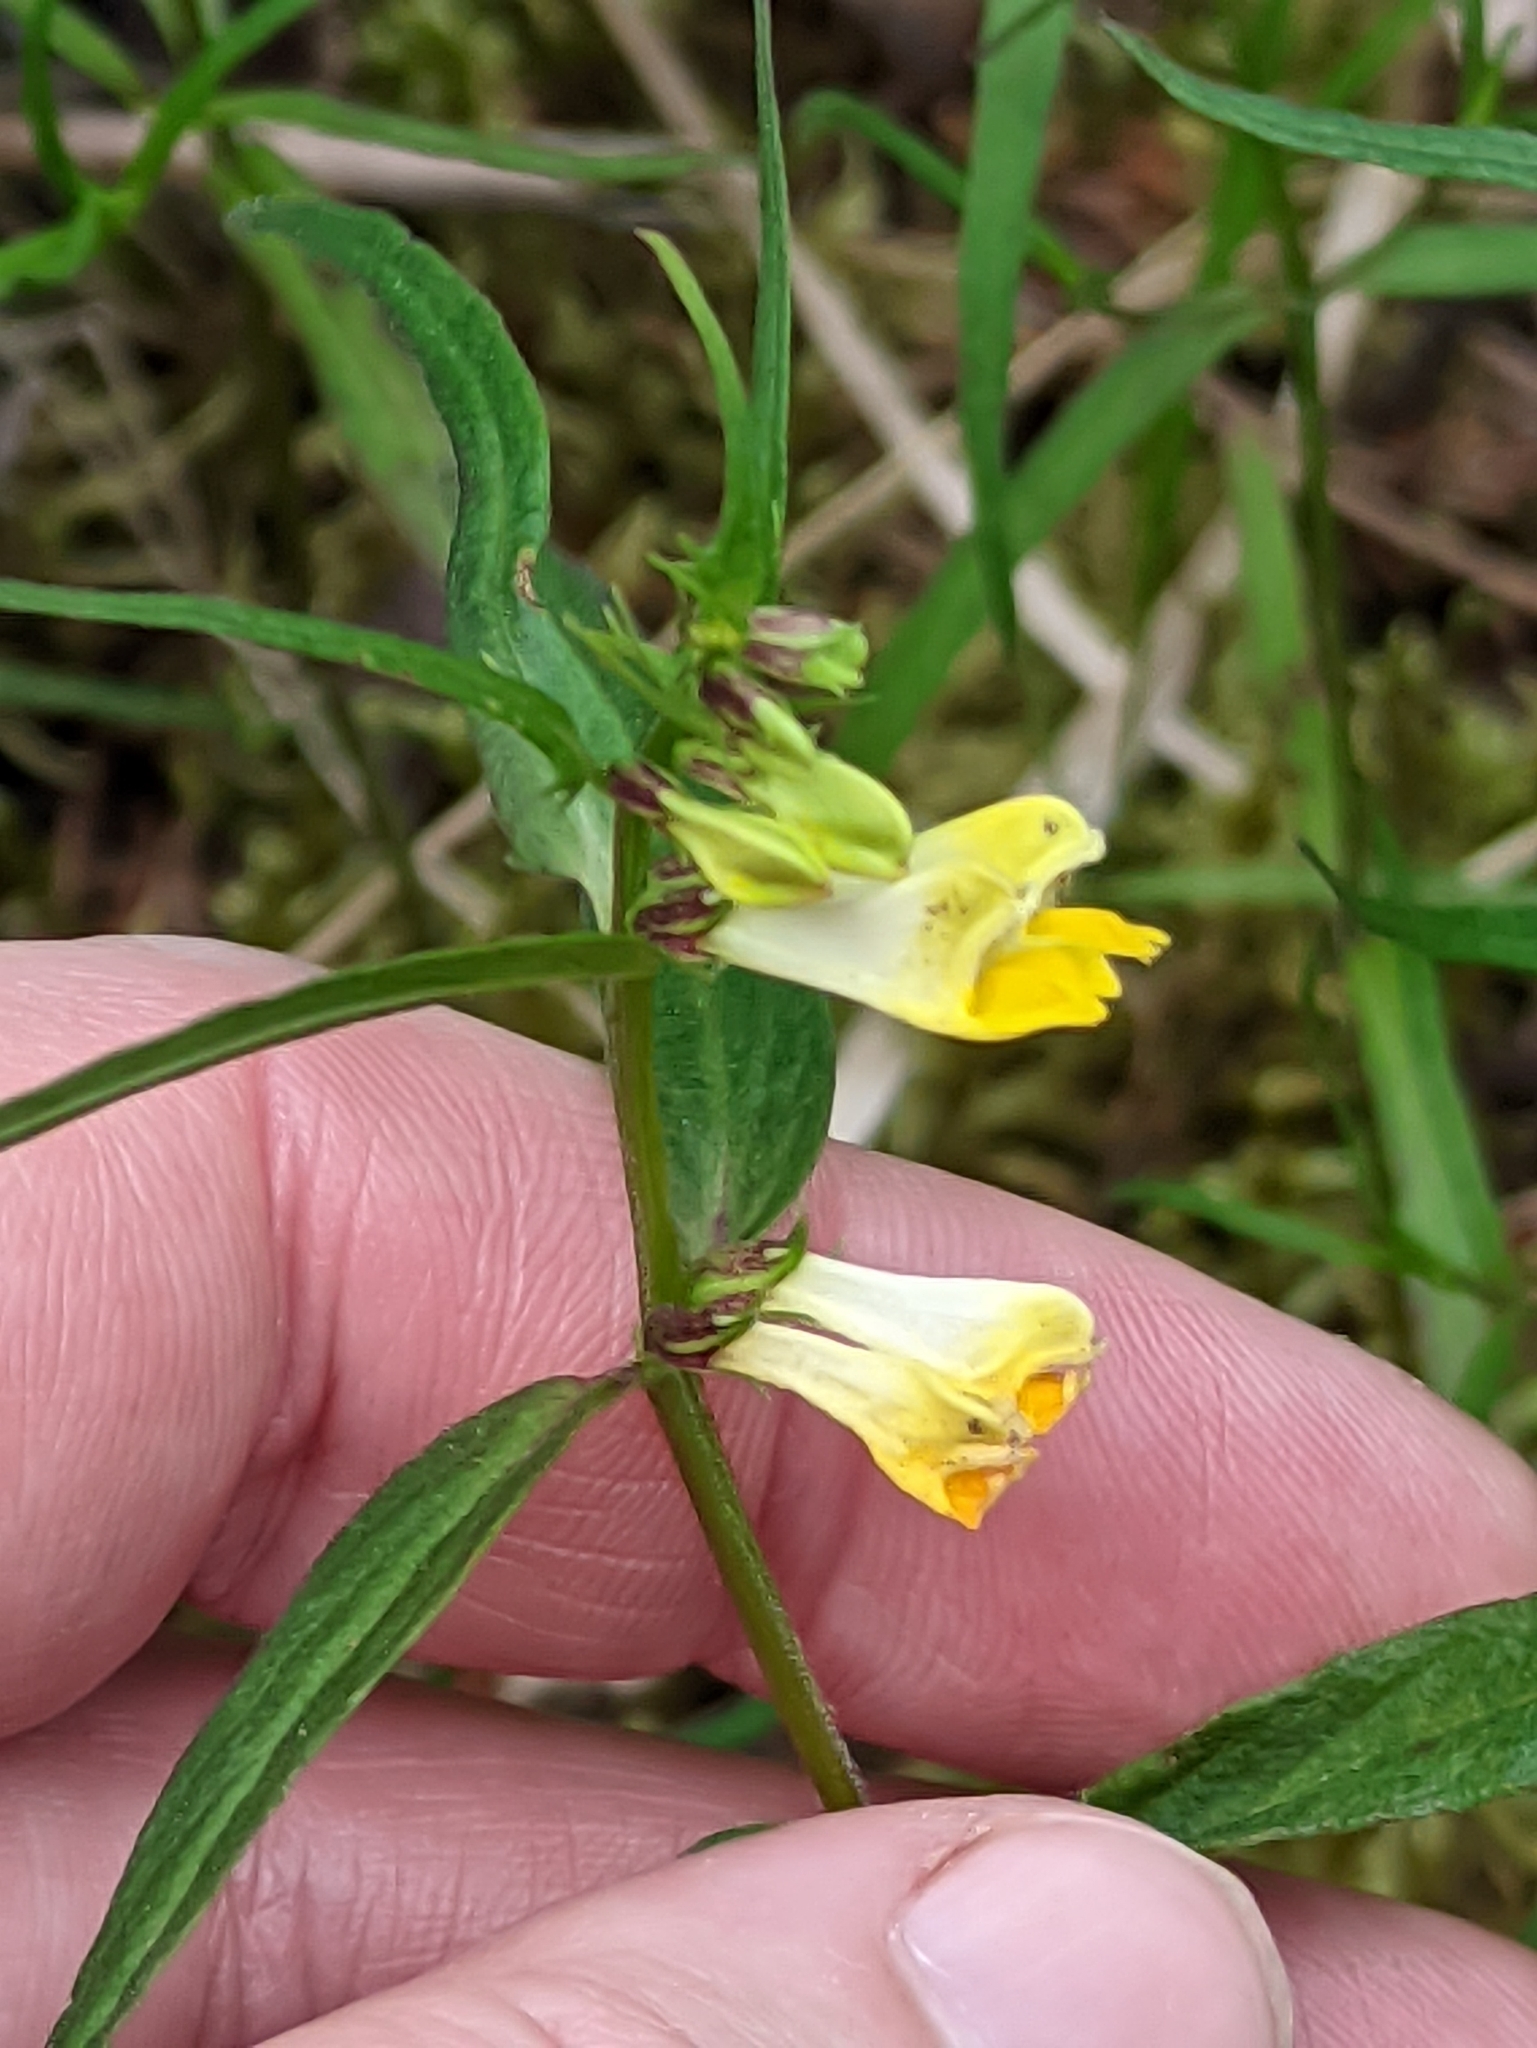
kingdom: Plantae
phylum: Tracheophyta
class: Magnoliopsida
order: Lamiales
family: Orobanchaceae
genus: Melampyrum
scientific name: Melampyrum pratense
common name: Common cow-wheat
